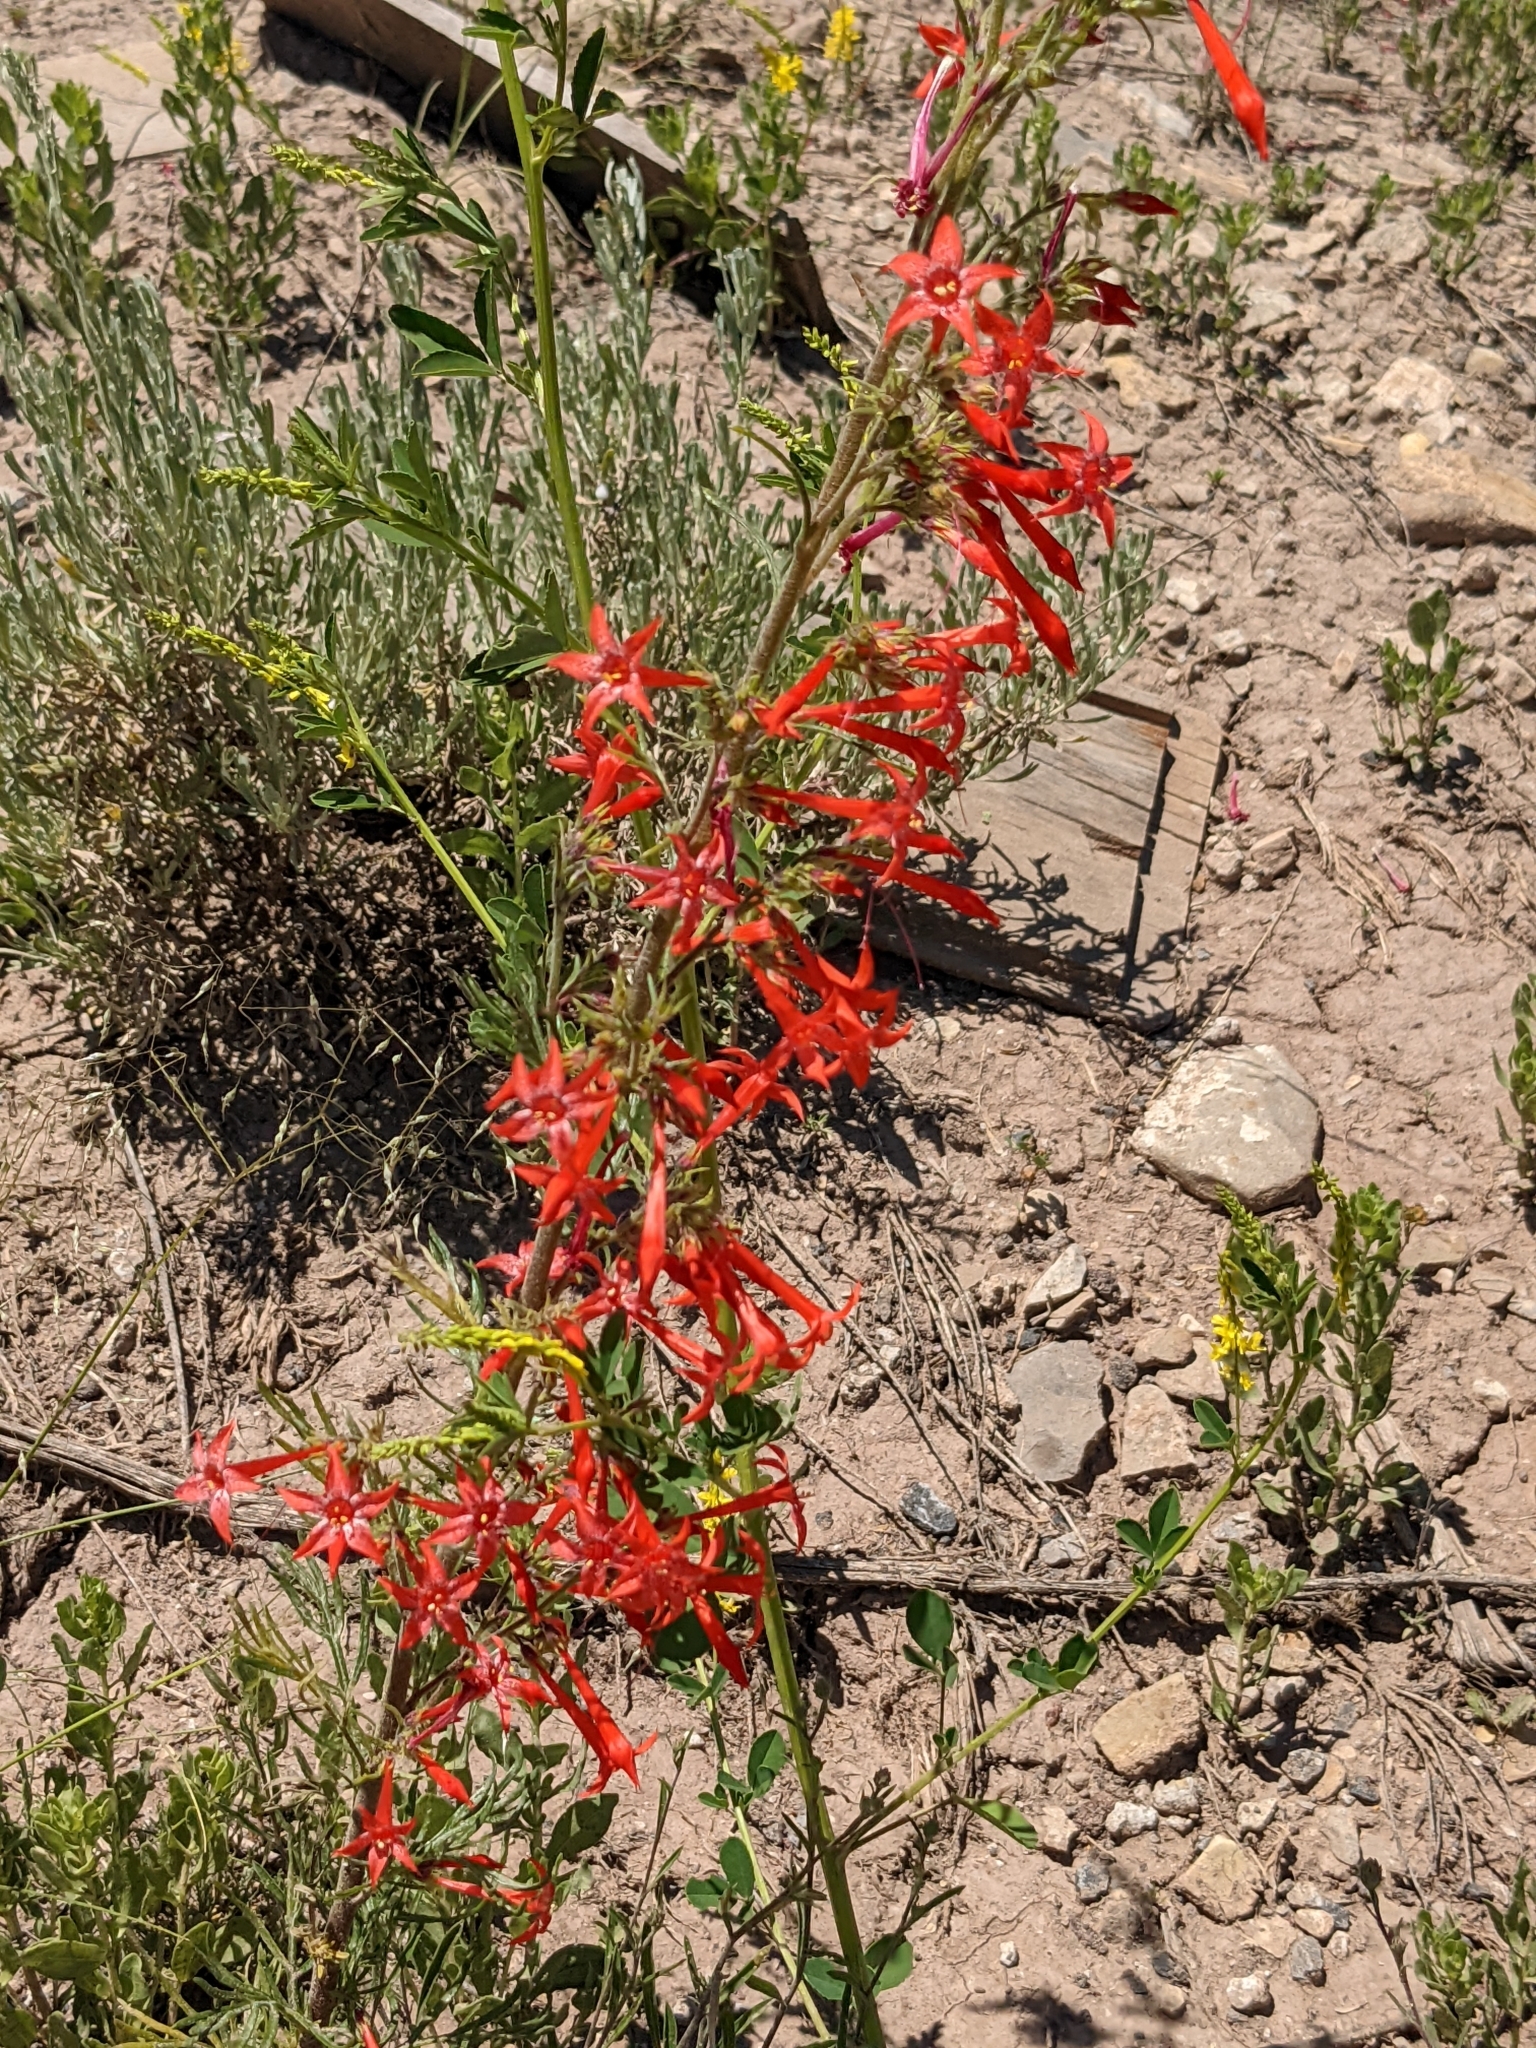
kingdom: Plantae
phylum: Tracheophyta
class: Magnoliopsida
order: Ericales
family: Polemoniaceae
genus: Ipomopsis
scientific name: Ipomopsis aggregata
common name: Scarlet gilia
